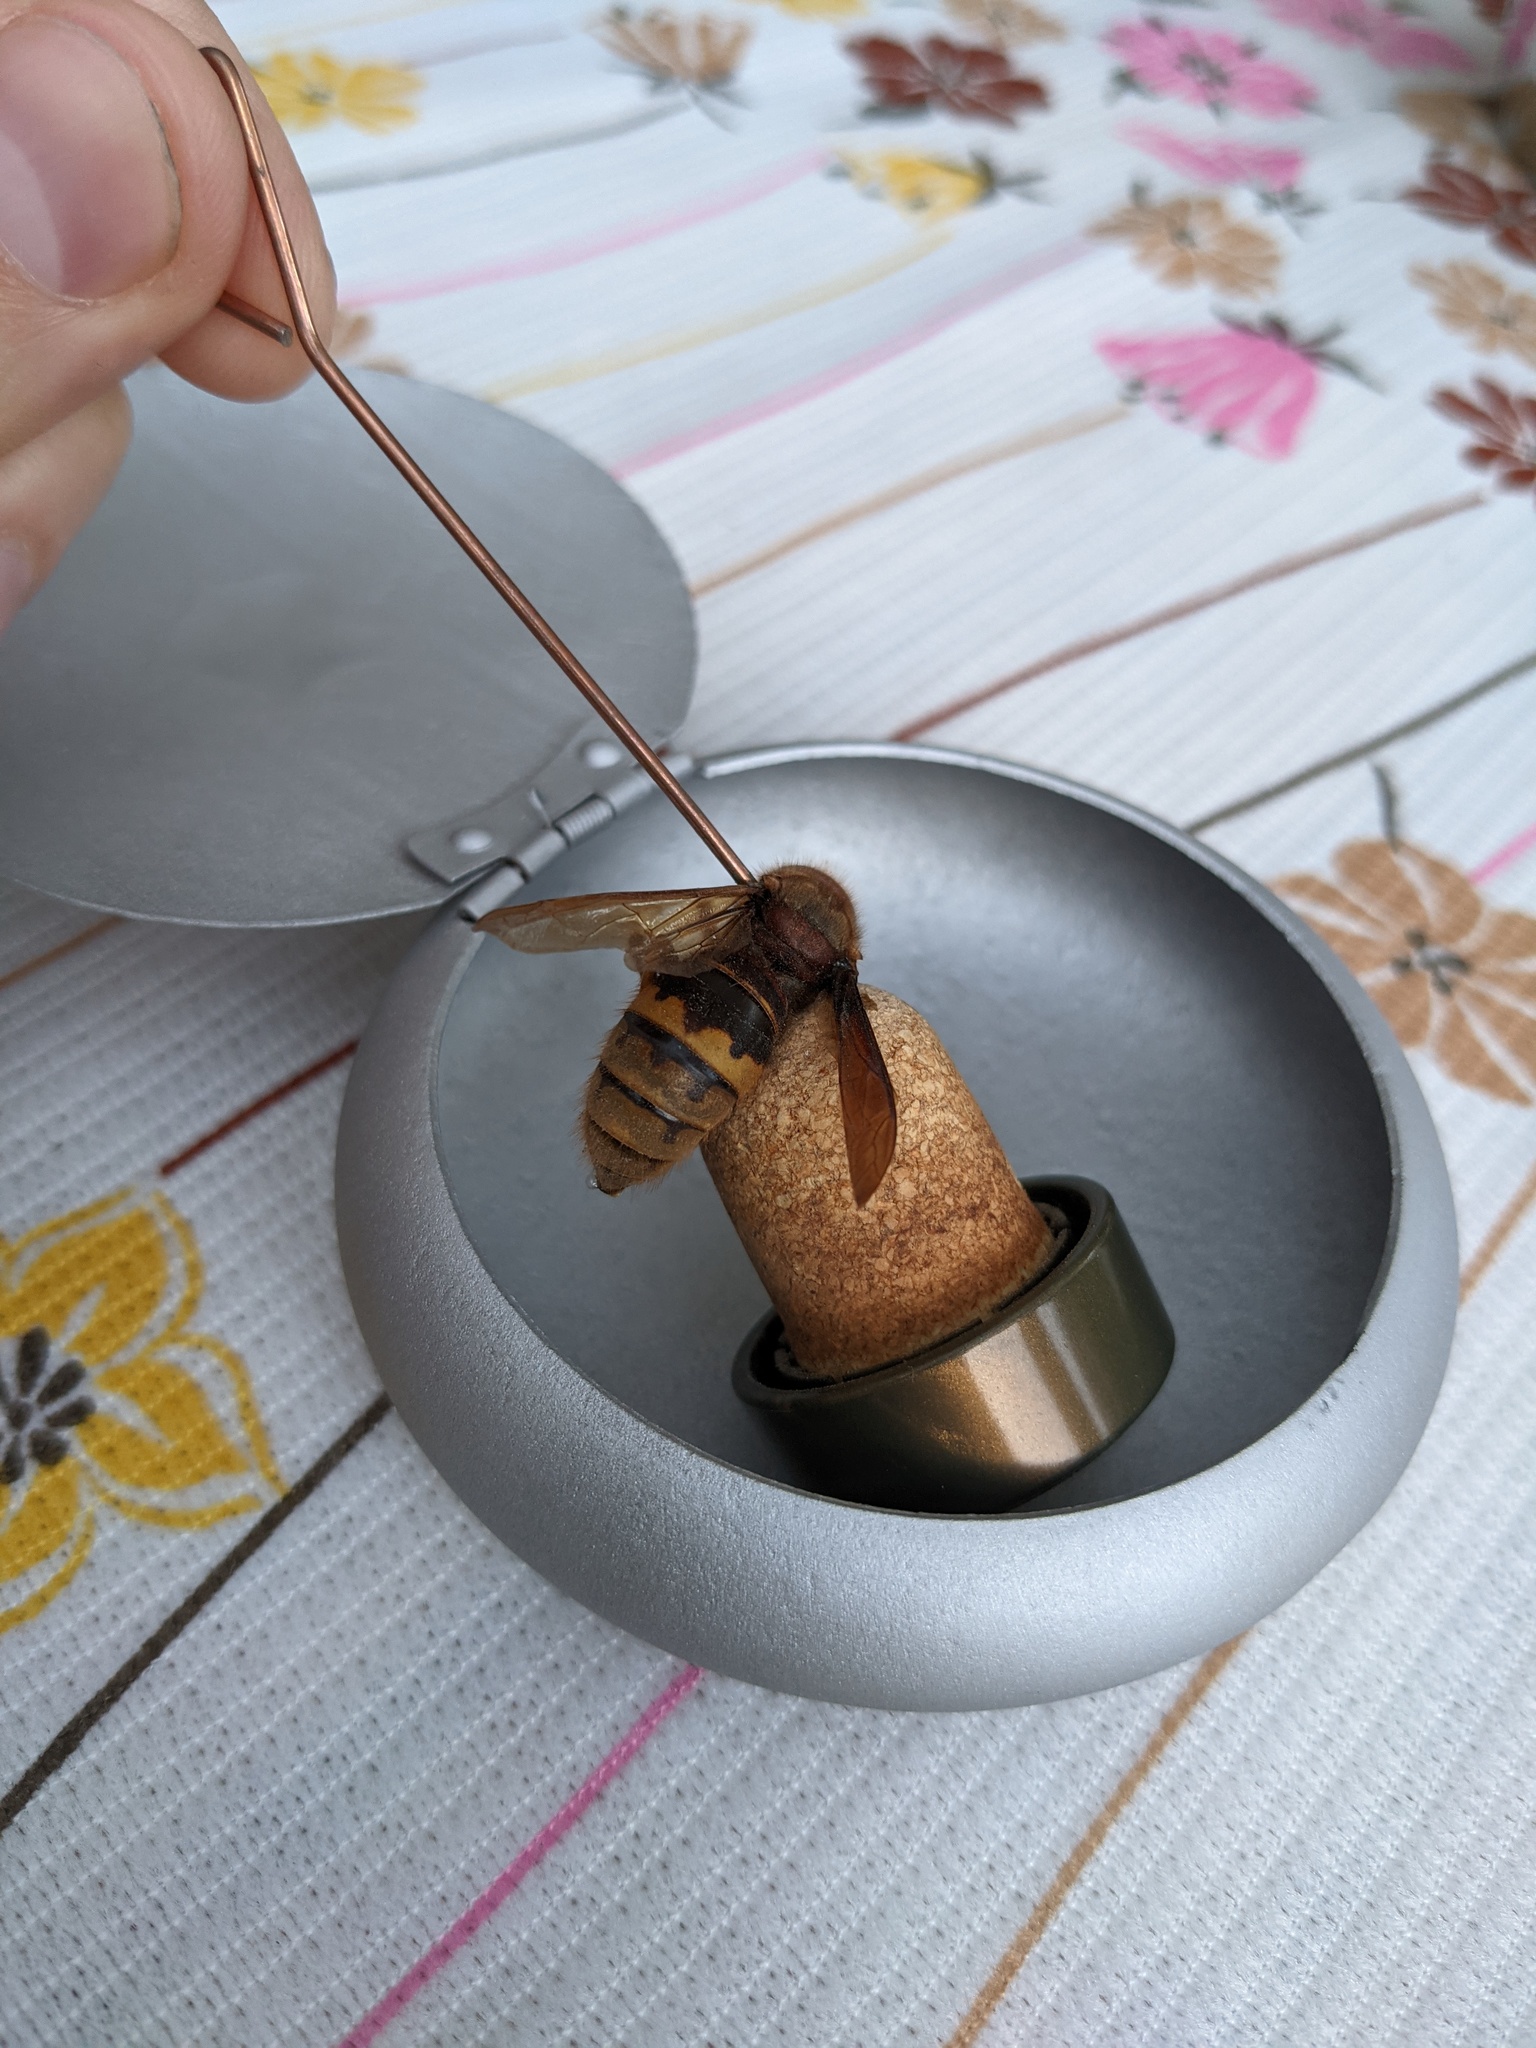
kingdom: Animalia
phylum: Arthropoda
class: Insecta
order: Hymenoptera
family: Vespidae
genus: Vespa
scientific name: Vespa crabro
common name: Hornet
